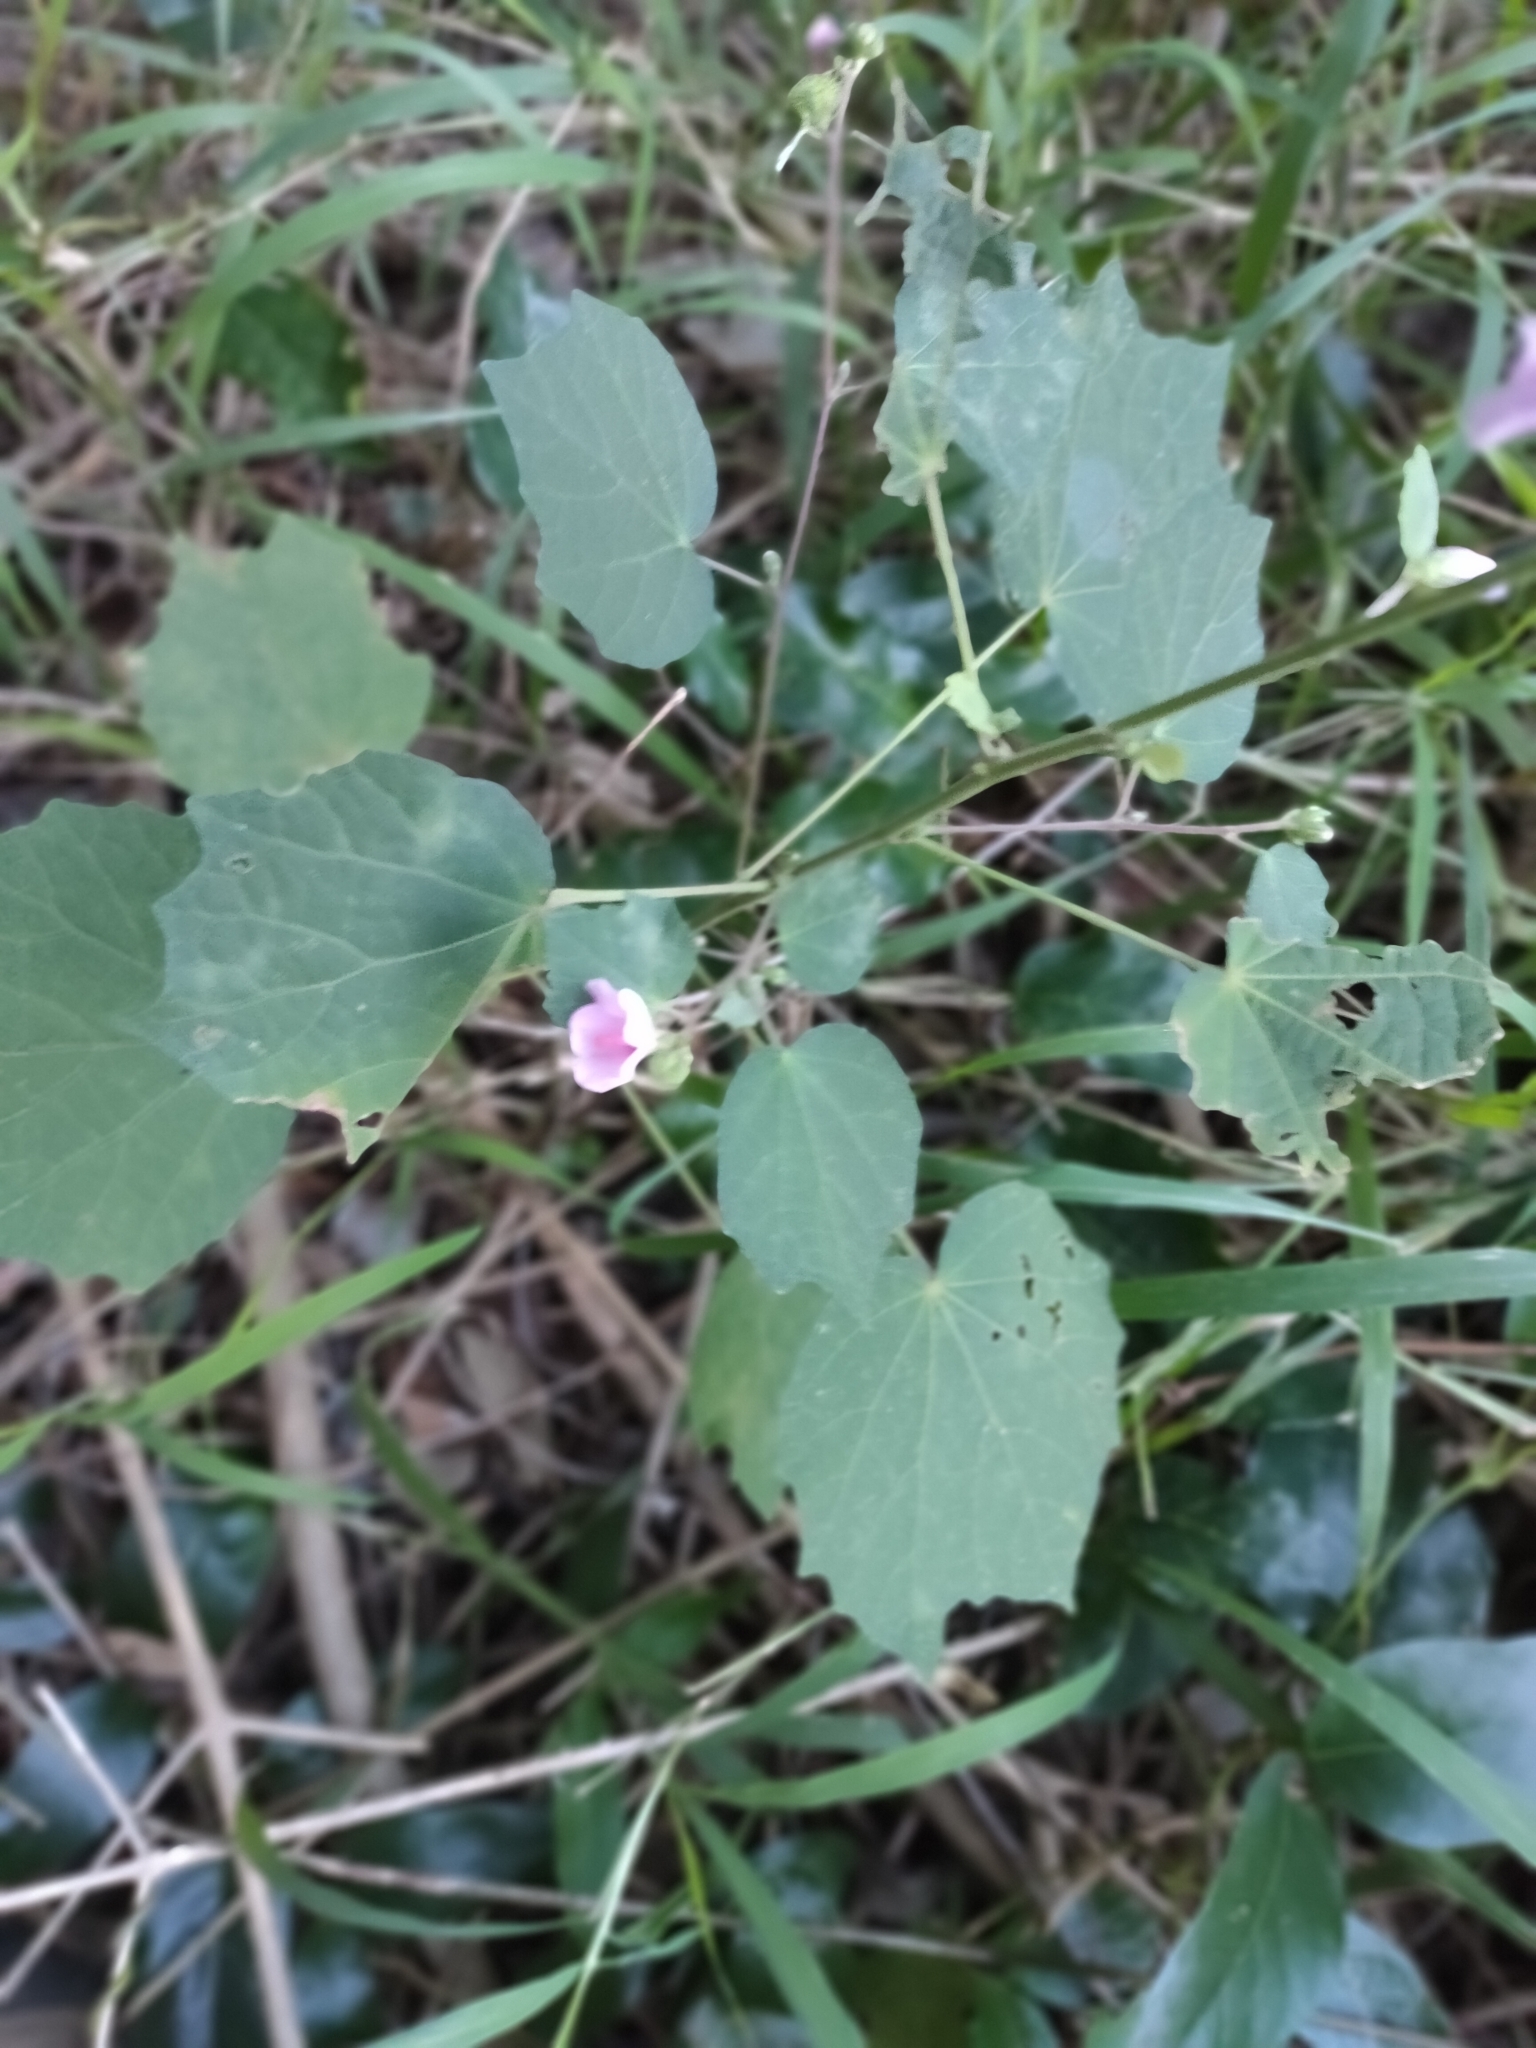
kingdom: Plantae
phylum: Tracheophyta
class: Magnoliopsida
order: Malvales
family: Malvaceae
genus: Urena
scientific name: Urena lobata
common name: Caesarweed
